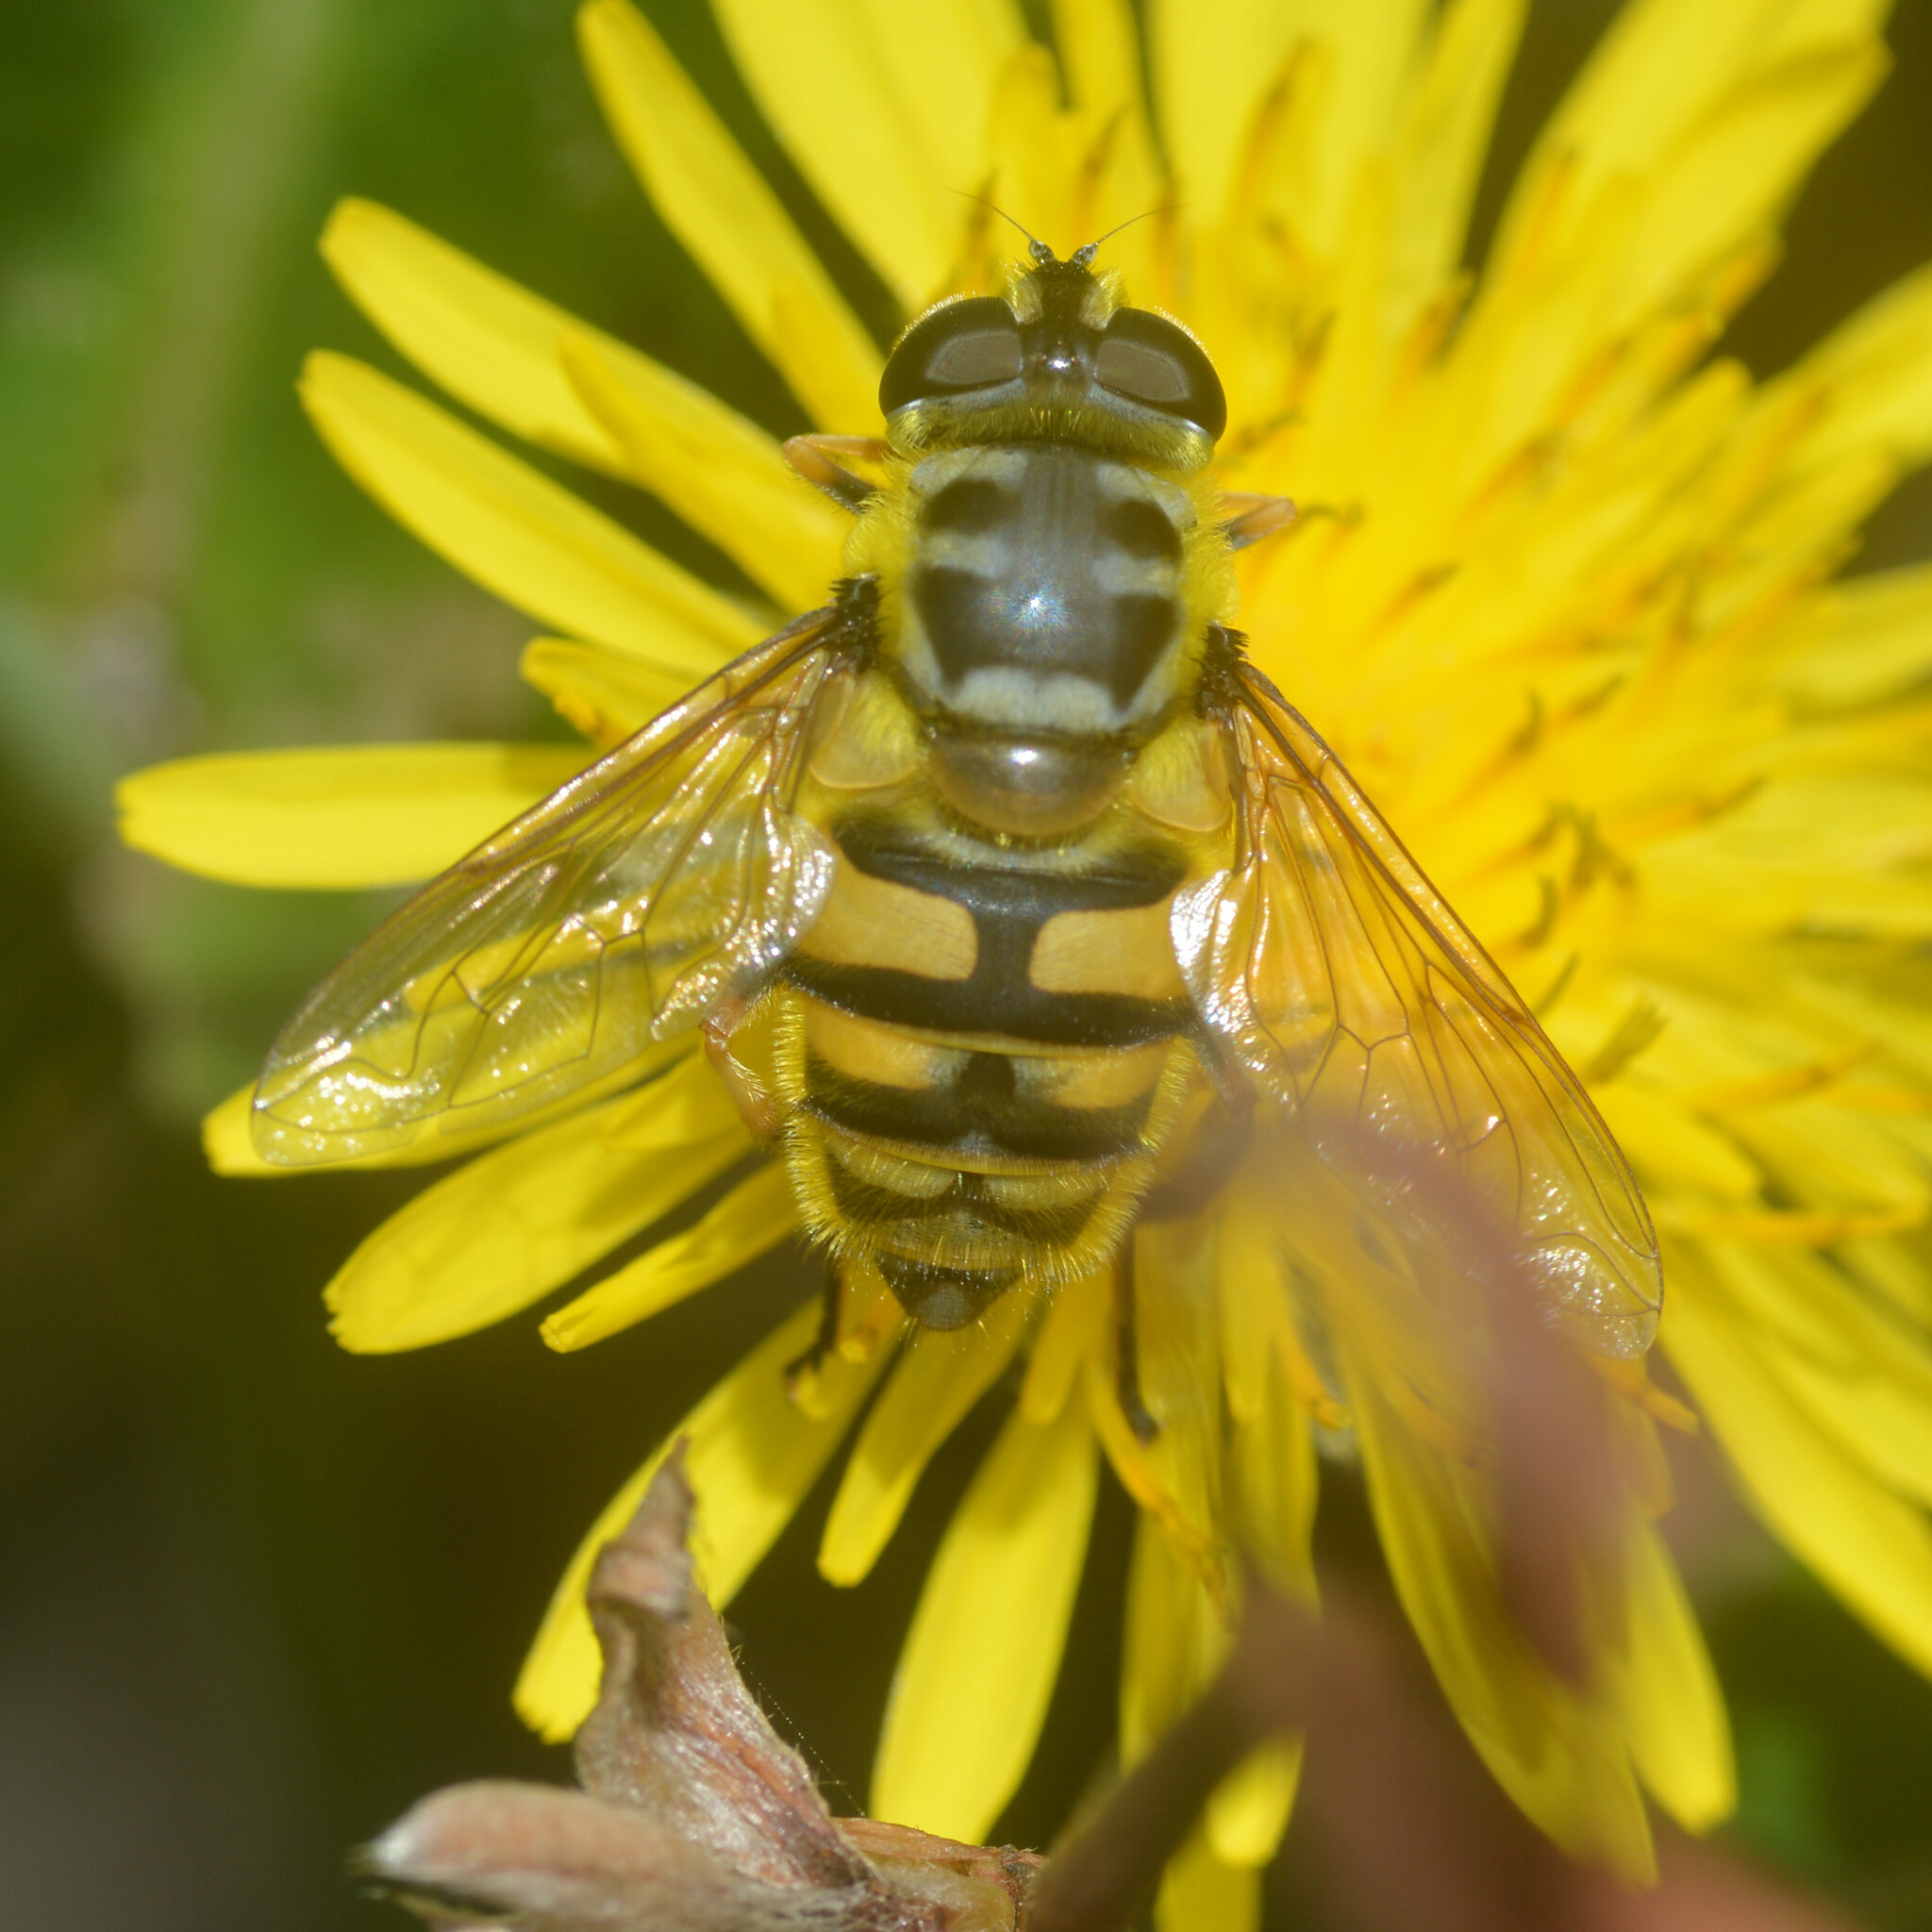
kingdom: Animalia
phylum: Arthropoda
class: Insecta
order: Diptera
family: Syrphidae
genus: Myathropa
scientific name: Myathropa florea
